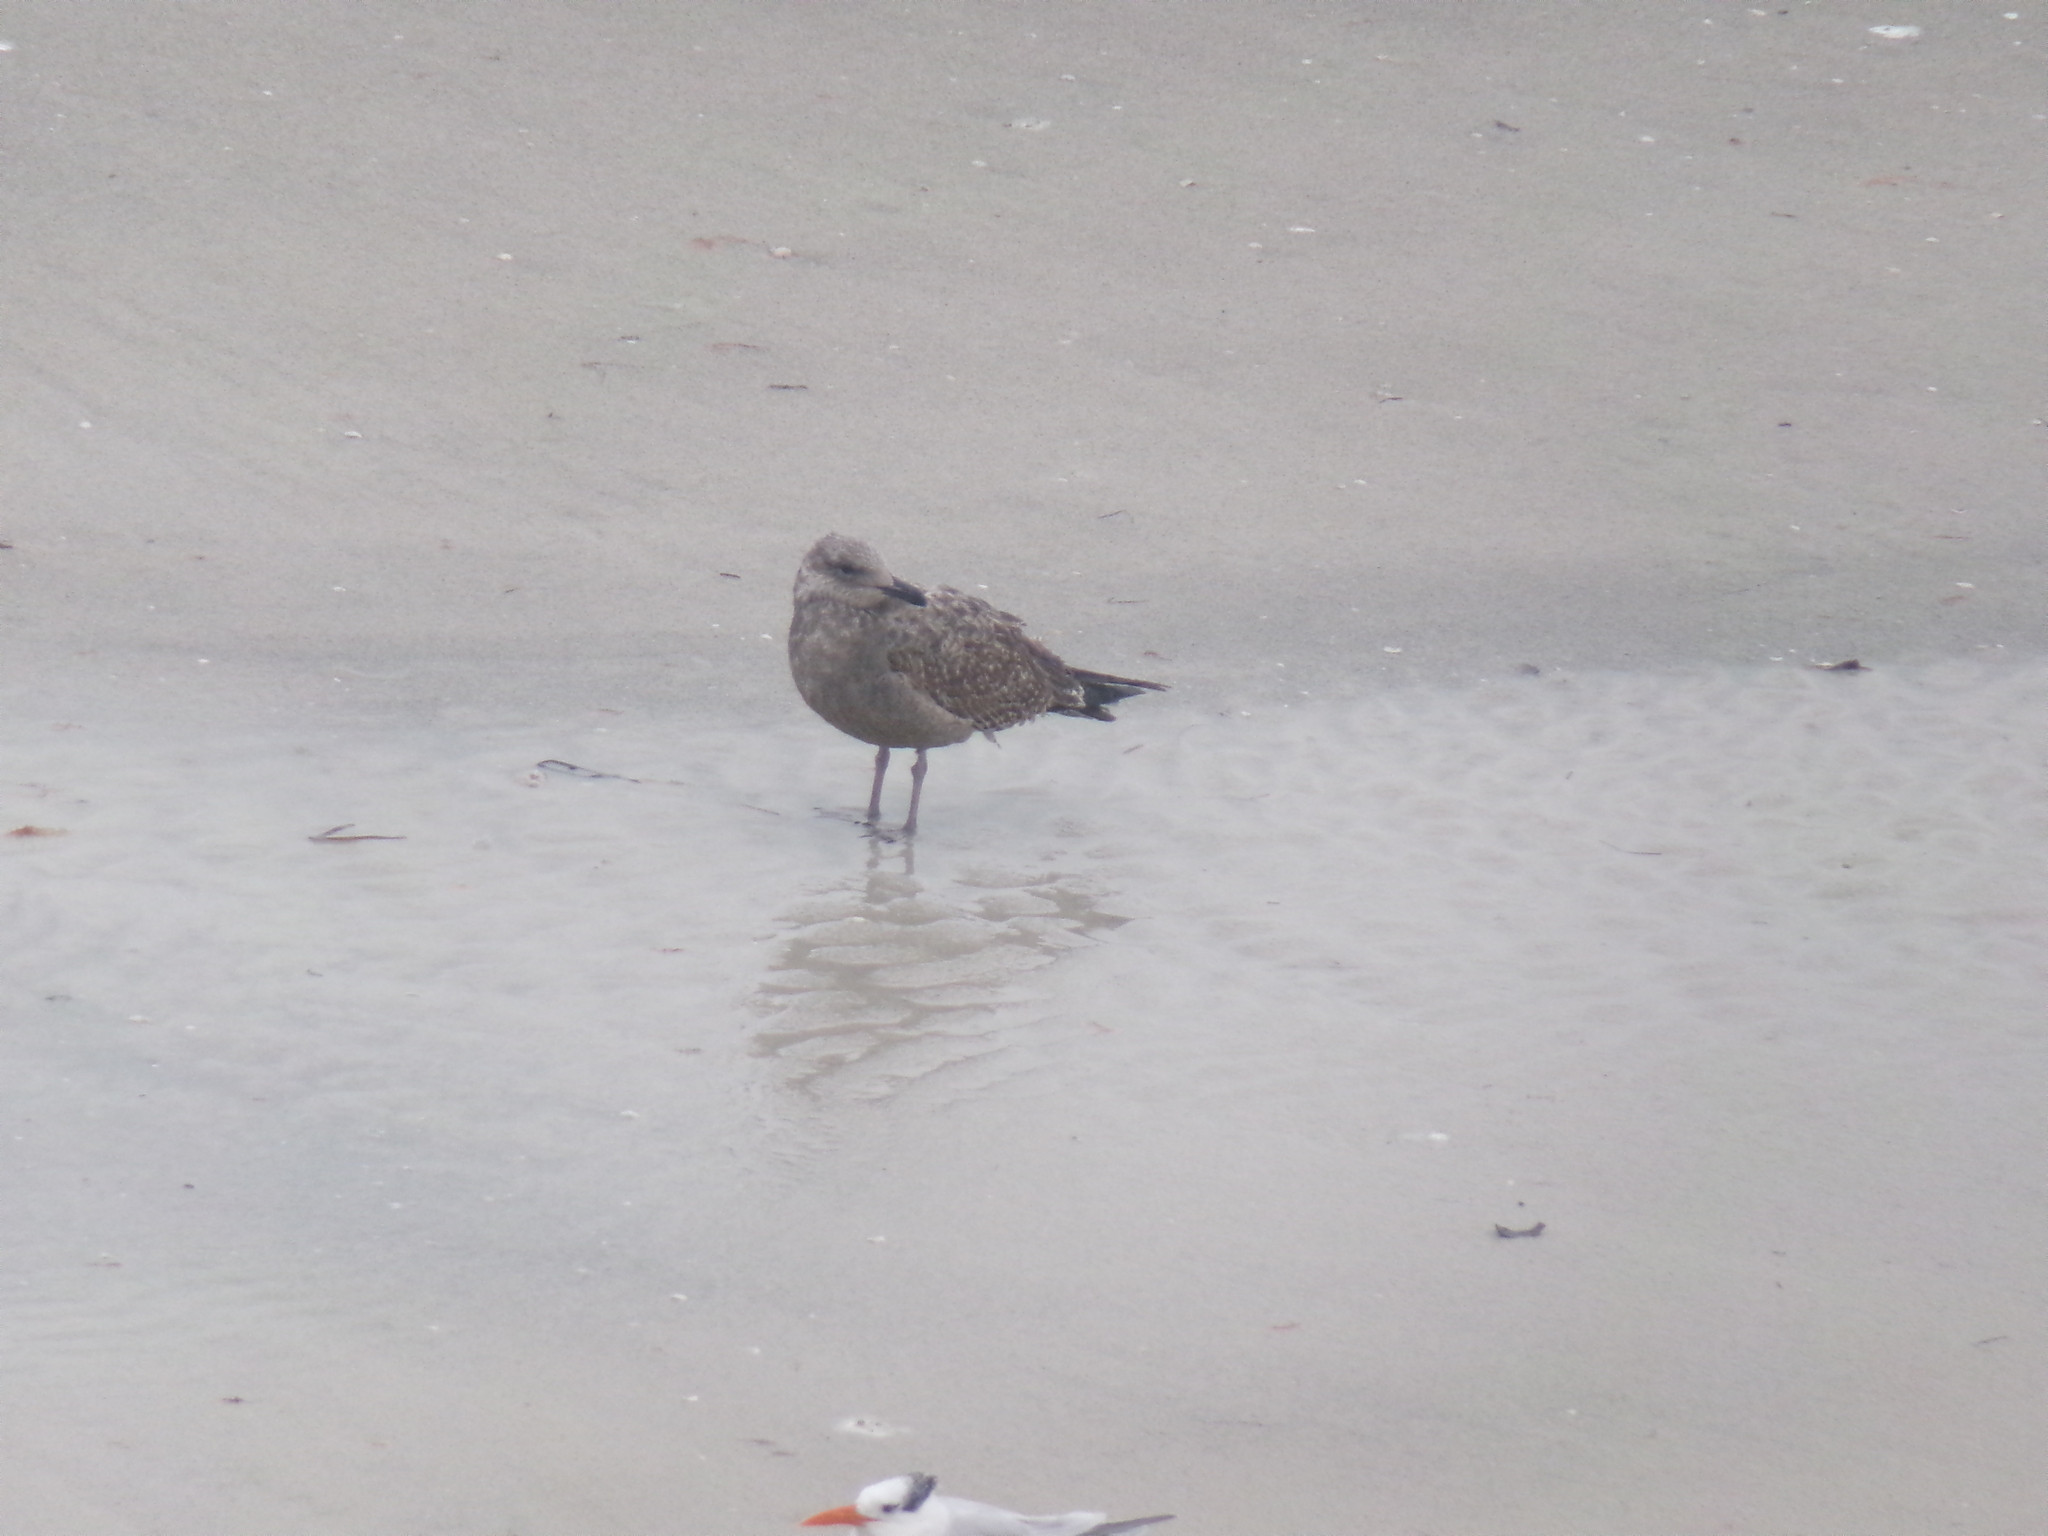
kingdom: Animalia
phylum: Chordata
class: Aves
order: Charadriiformes
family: Laridae
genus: Larus
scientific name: Larus smithsonianus
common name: American herring gull
